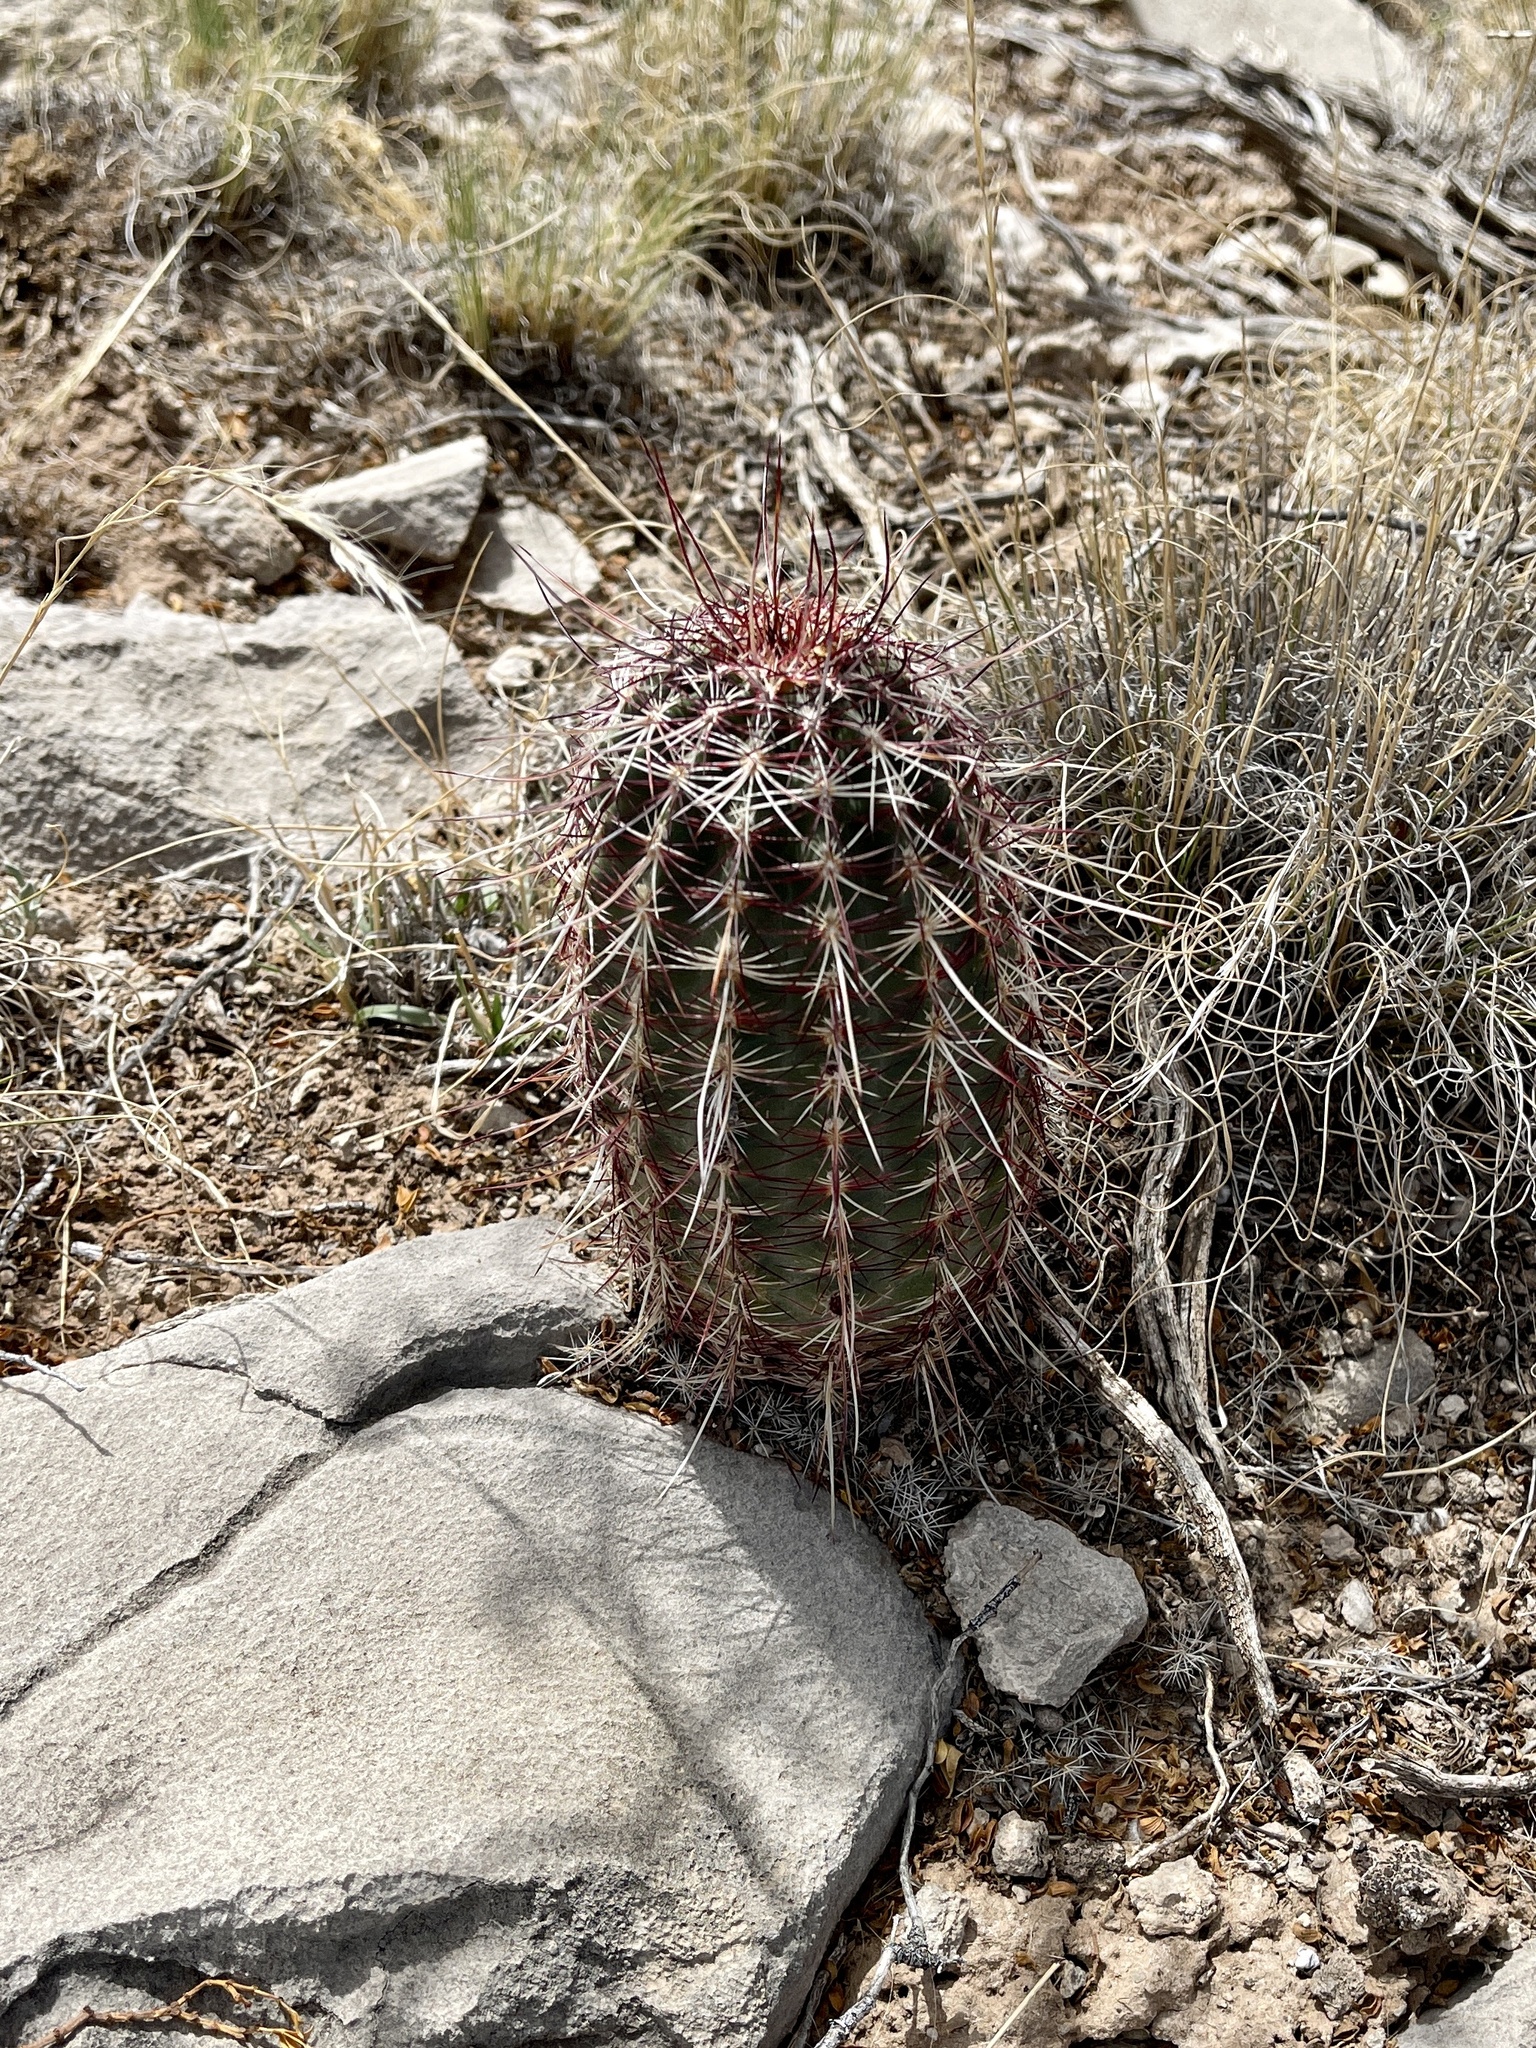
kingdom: Plantae
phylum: Tracheophyta
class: Magnoliopsida
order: Caryophyllales
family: Cactaceae
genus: Echinocereus
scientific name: Echinocereus viridiflorus
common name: Nylon hedgehog cactus
